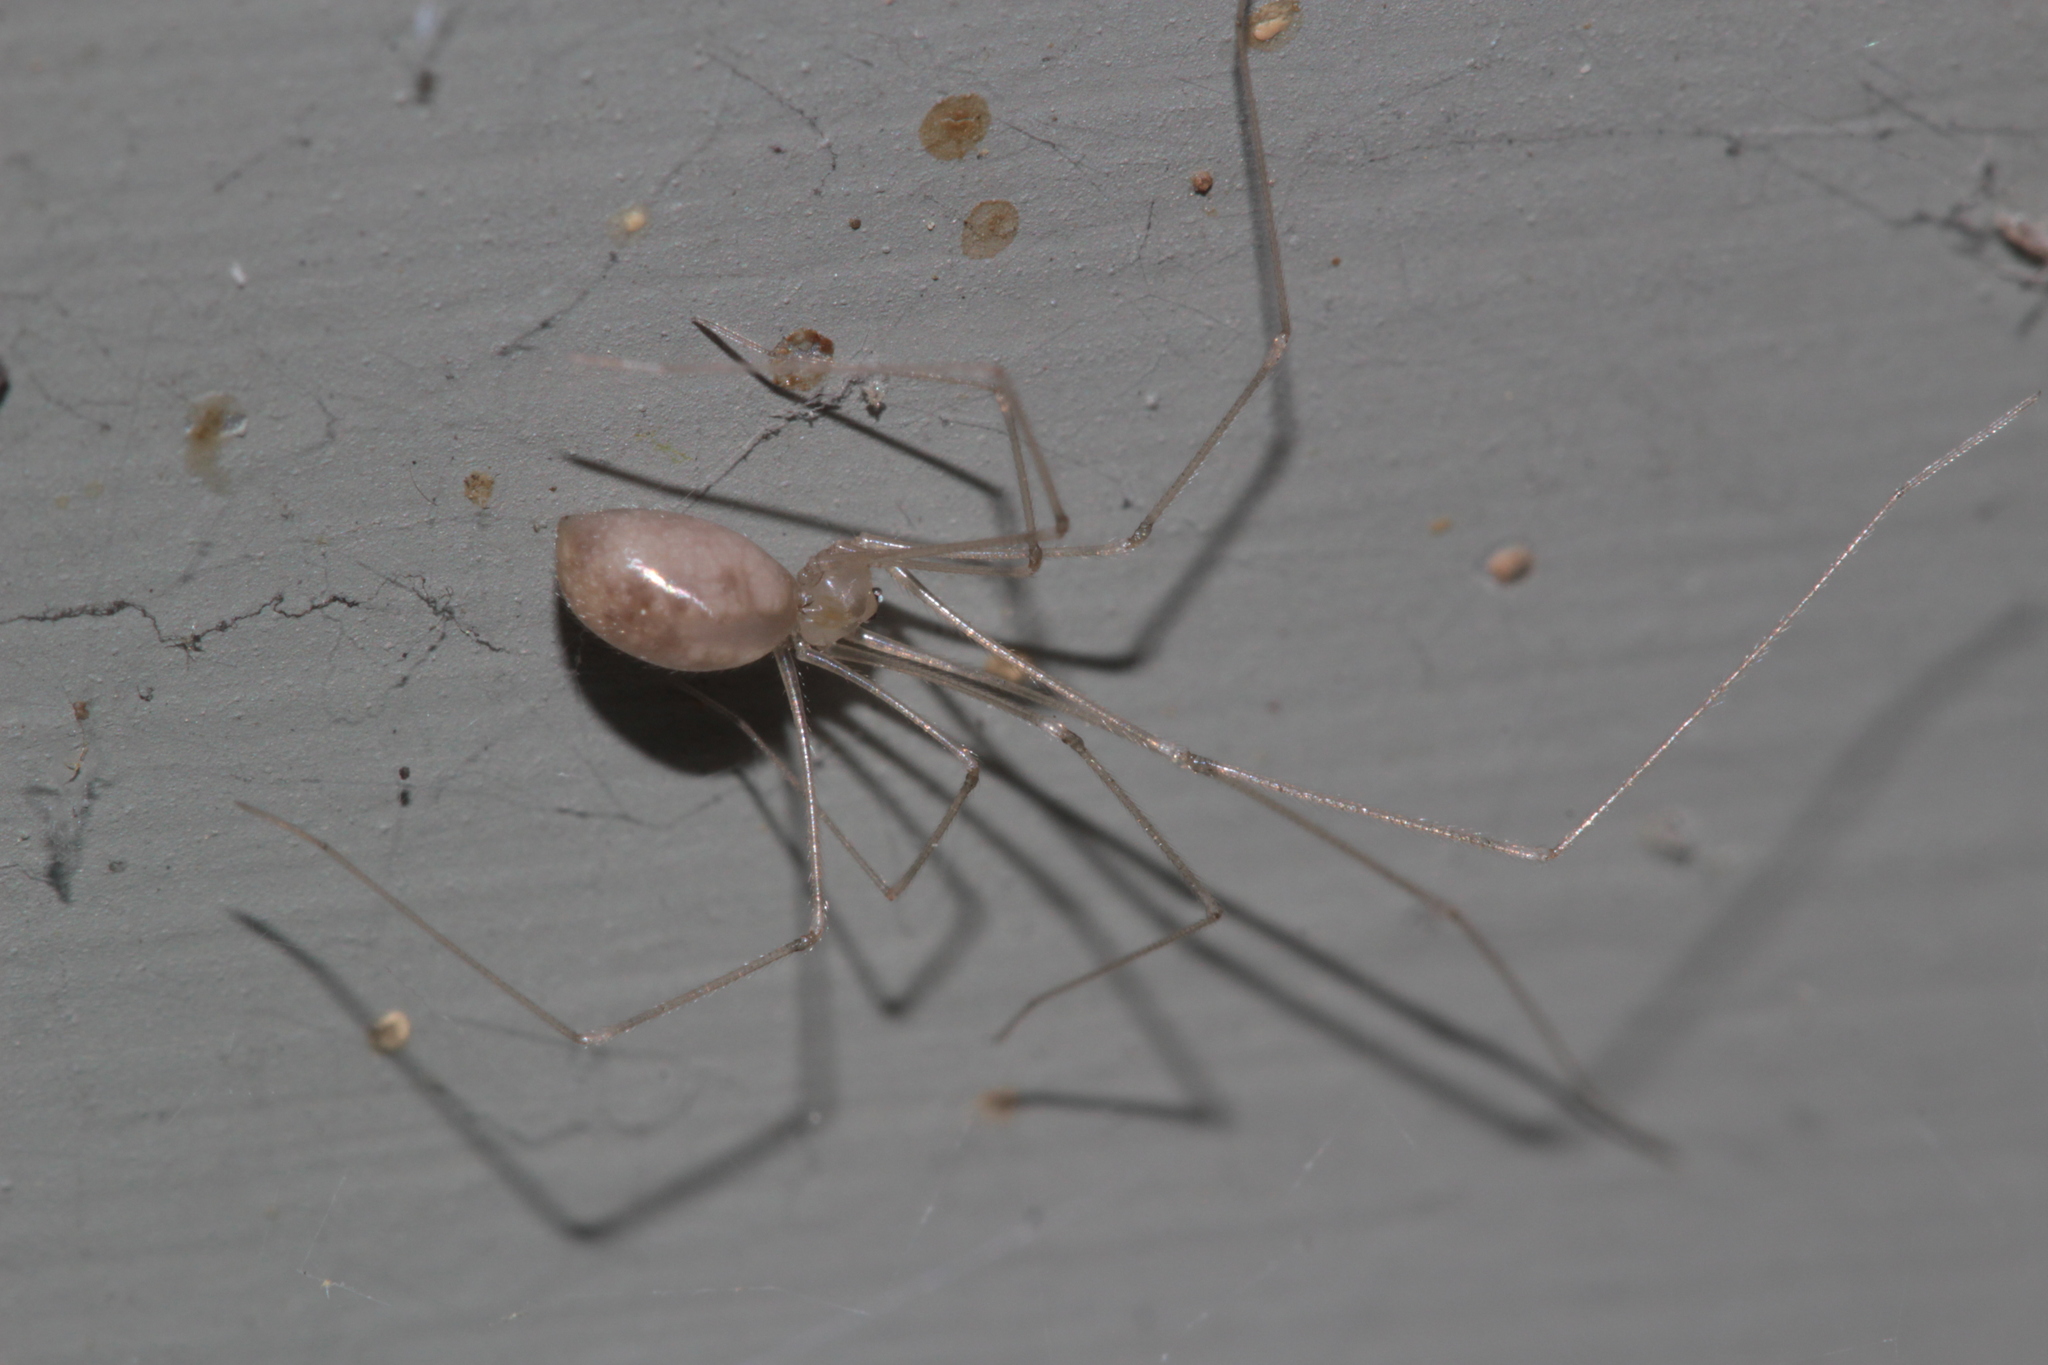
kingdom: Animalia
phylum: Arthropoda
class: Arachnida
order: Araneae
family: Pholcidae
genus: Pholcus
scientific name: Pholcus phalangioides
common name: Longbodied cellar spider
